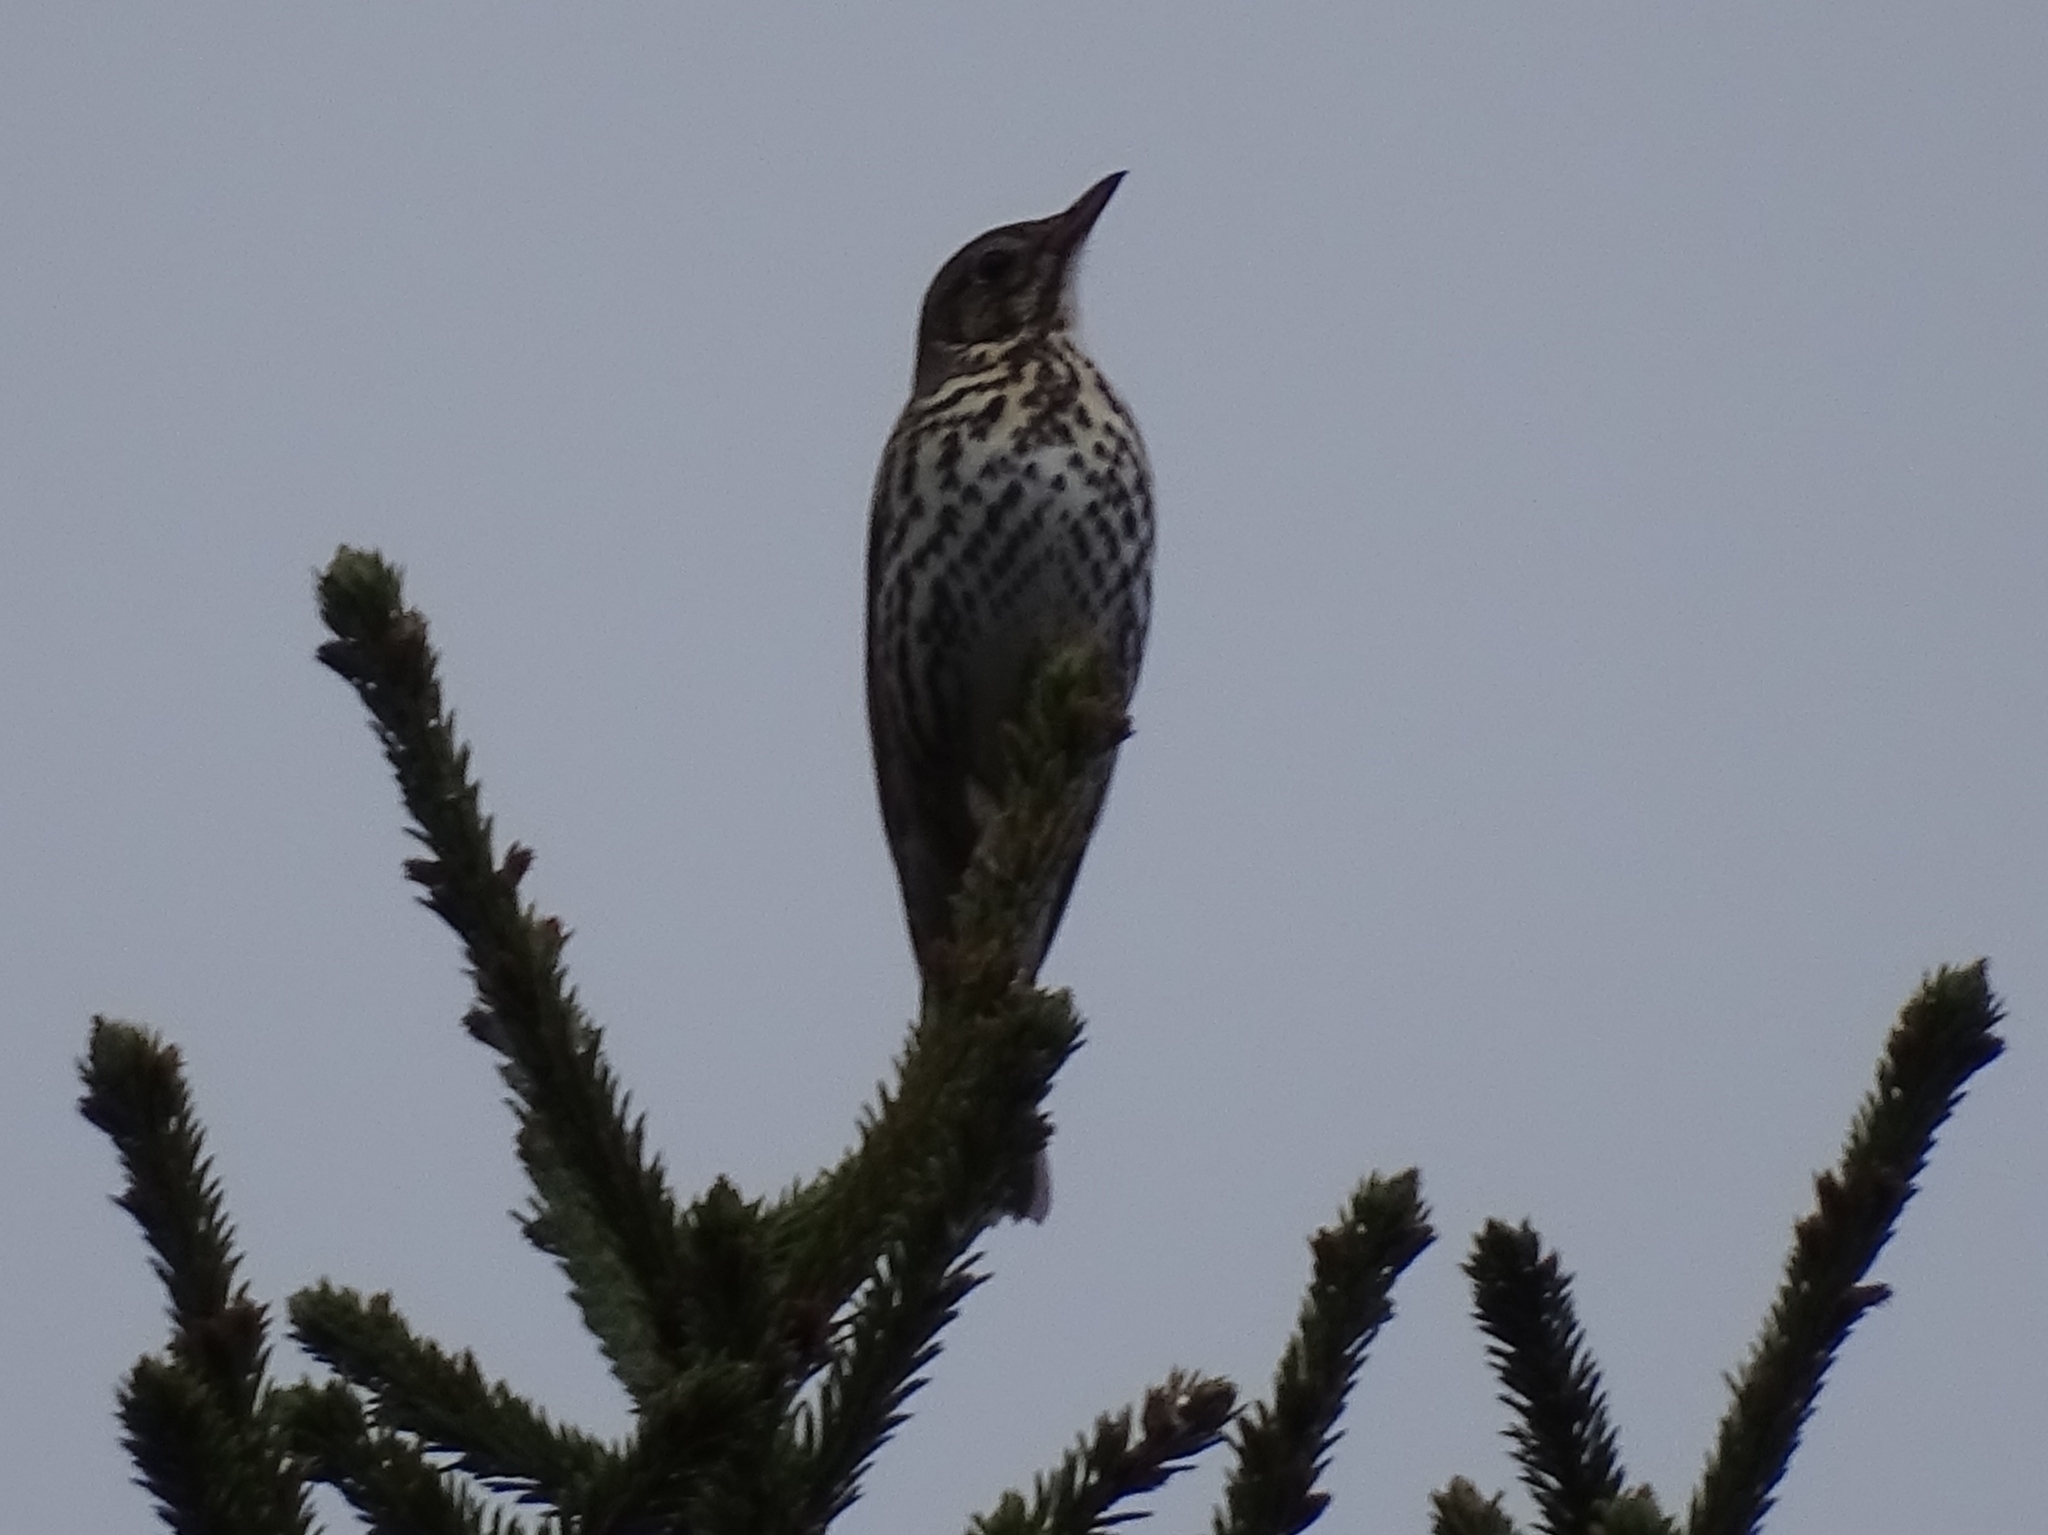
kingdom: Animalia
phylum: Chordata
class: Aves
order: Passeriformes
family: Turdidae
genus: Turdus
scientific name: Turdus philomelos
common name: Song thrush
